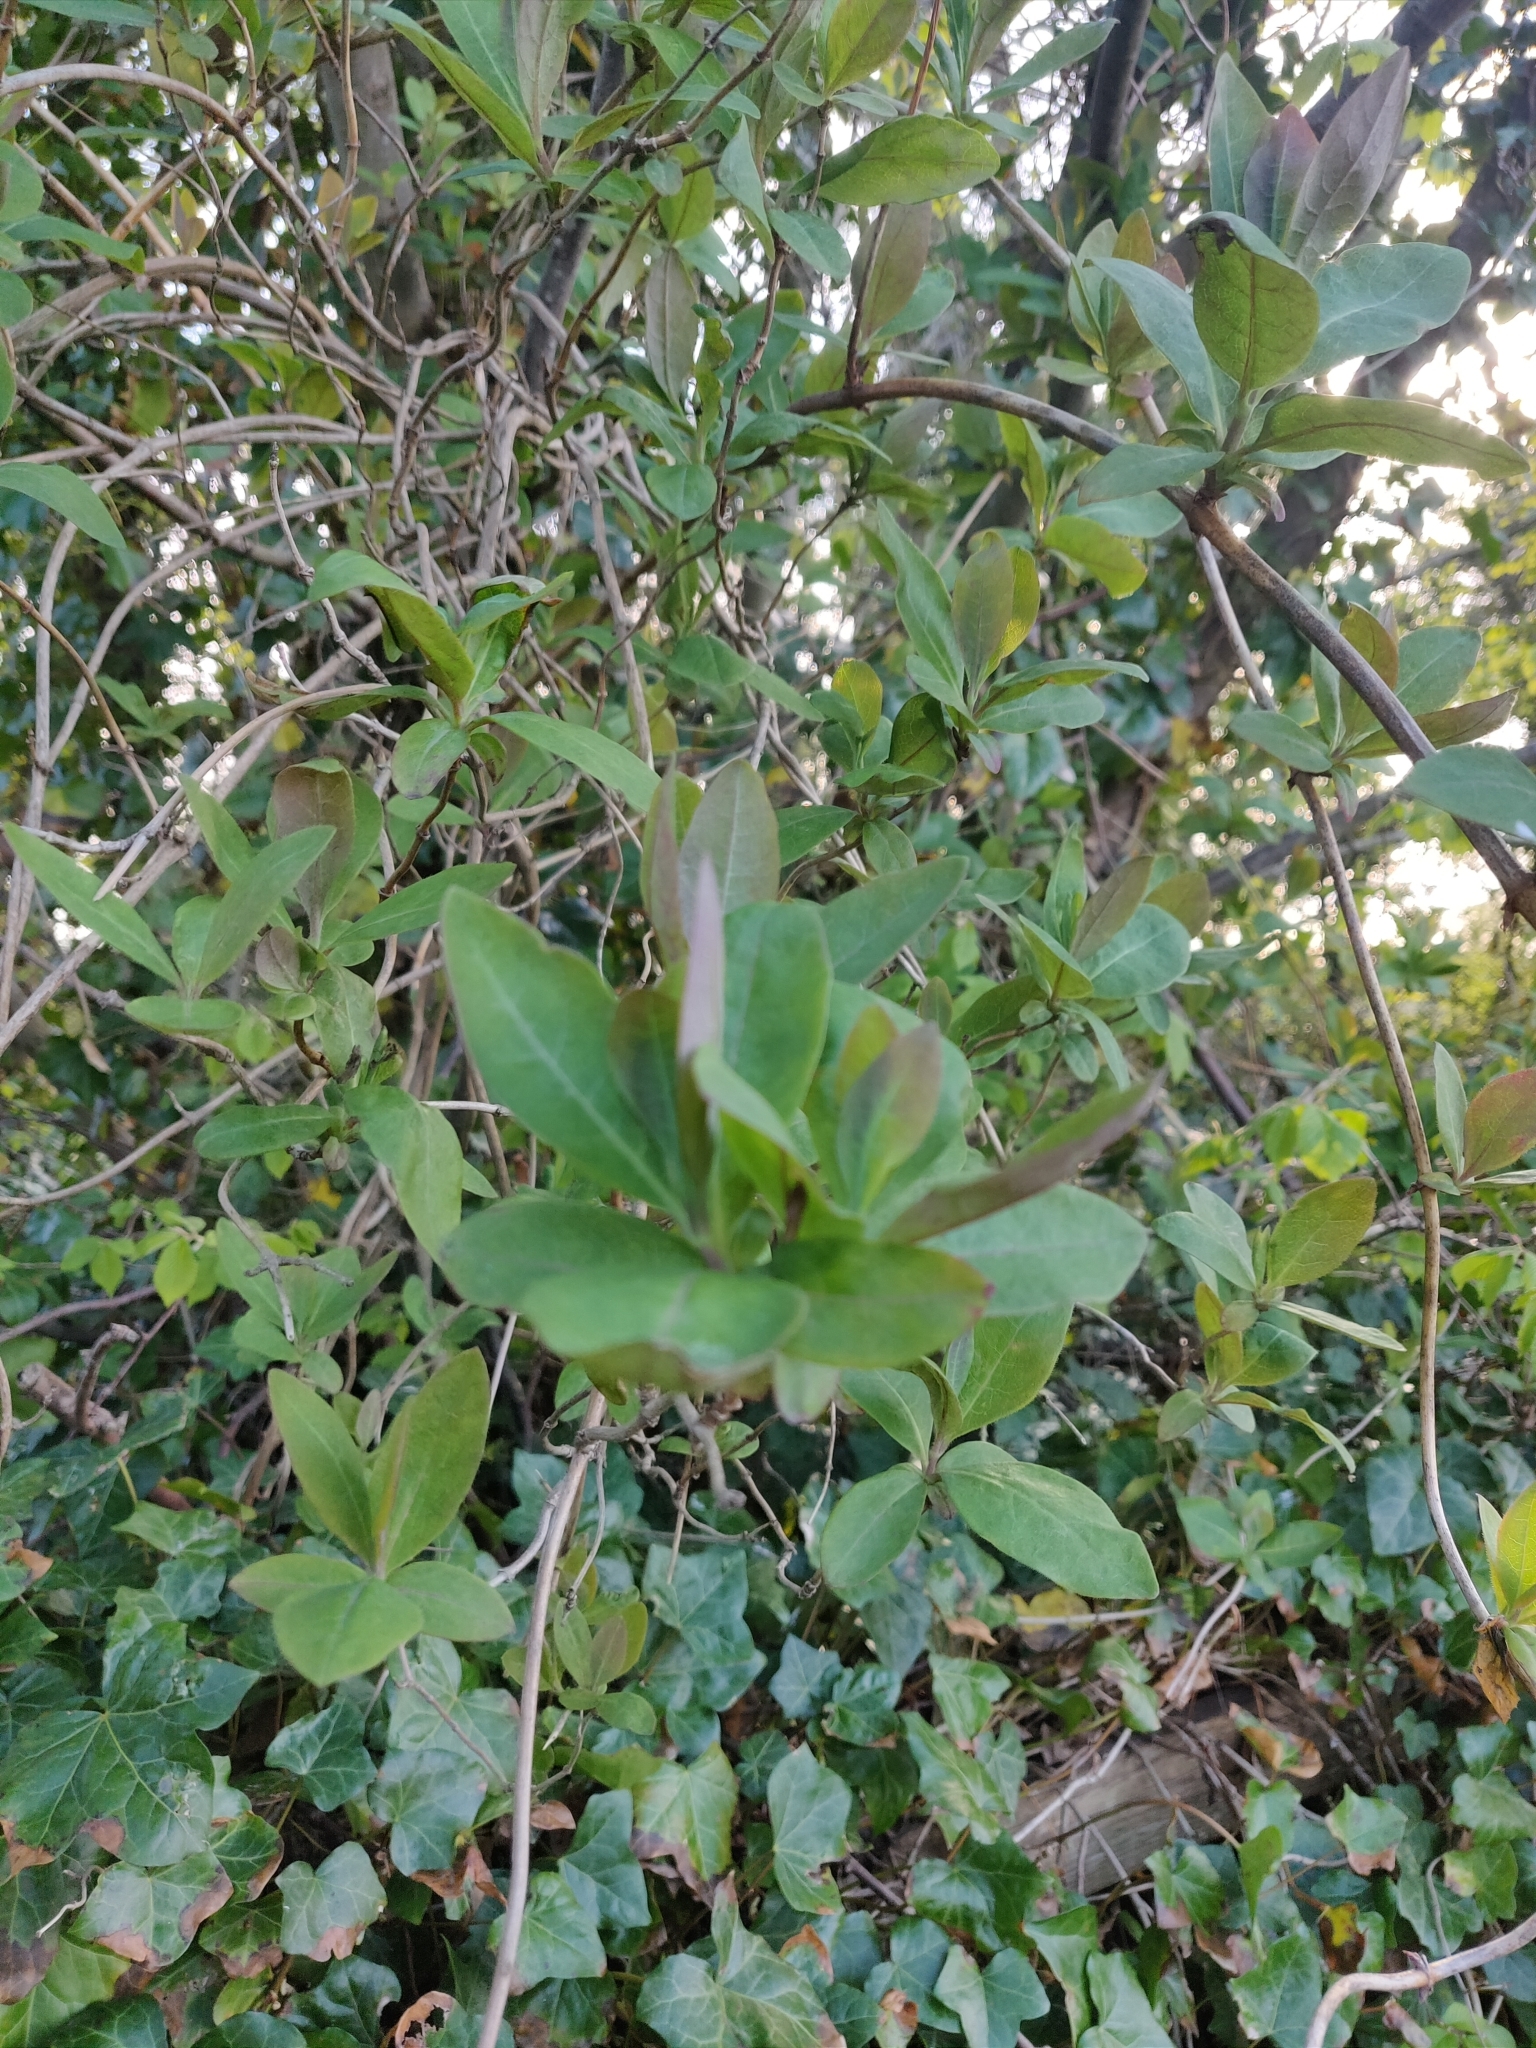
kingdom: Plantae
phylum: Tracheophyta
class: Magnoliopsida
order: Dipsacales
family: Caprifoliaceae
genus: Lonicera
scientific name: Lonicera periclymenum
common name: European honeysuckle
